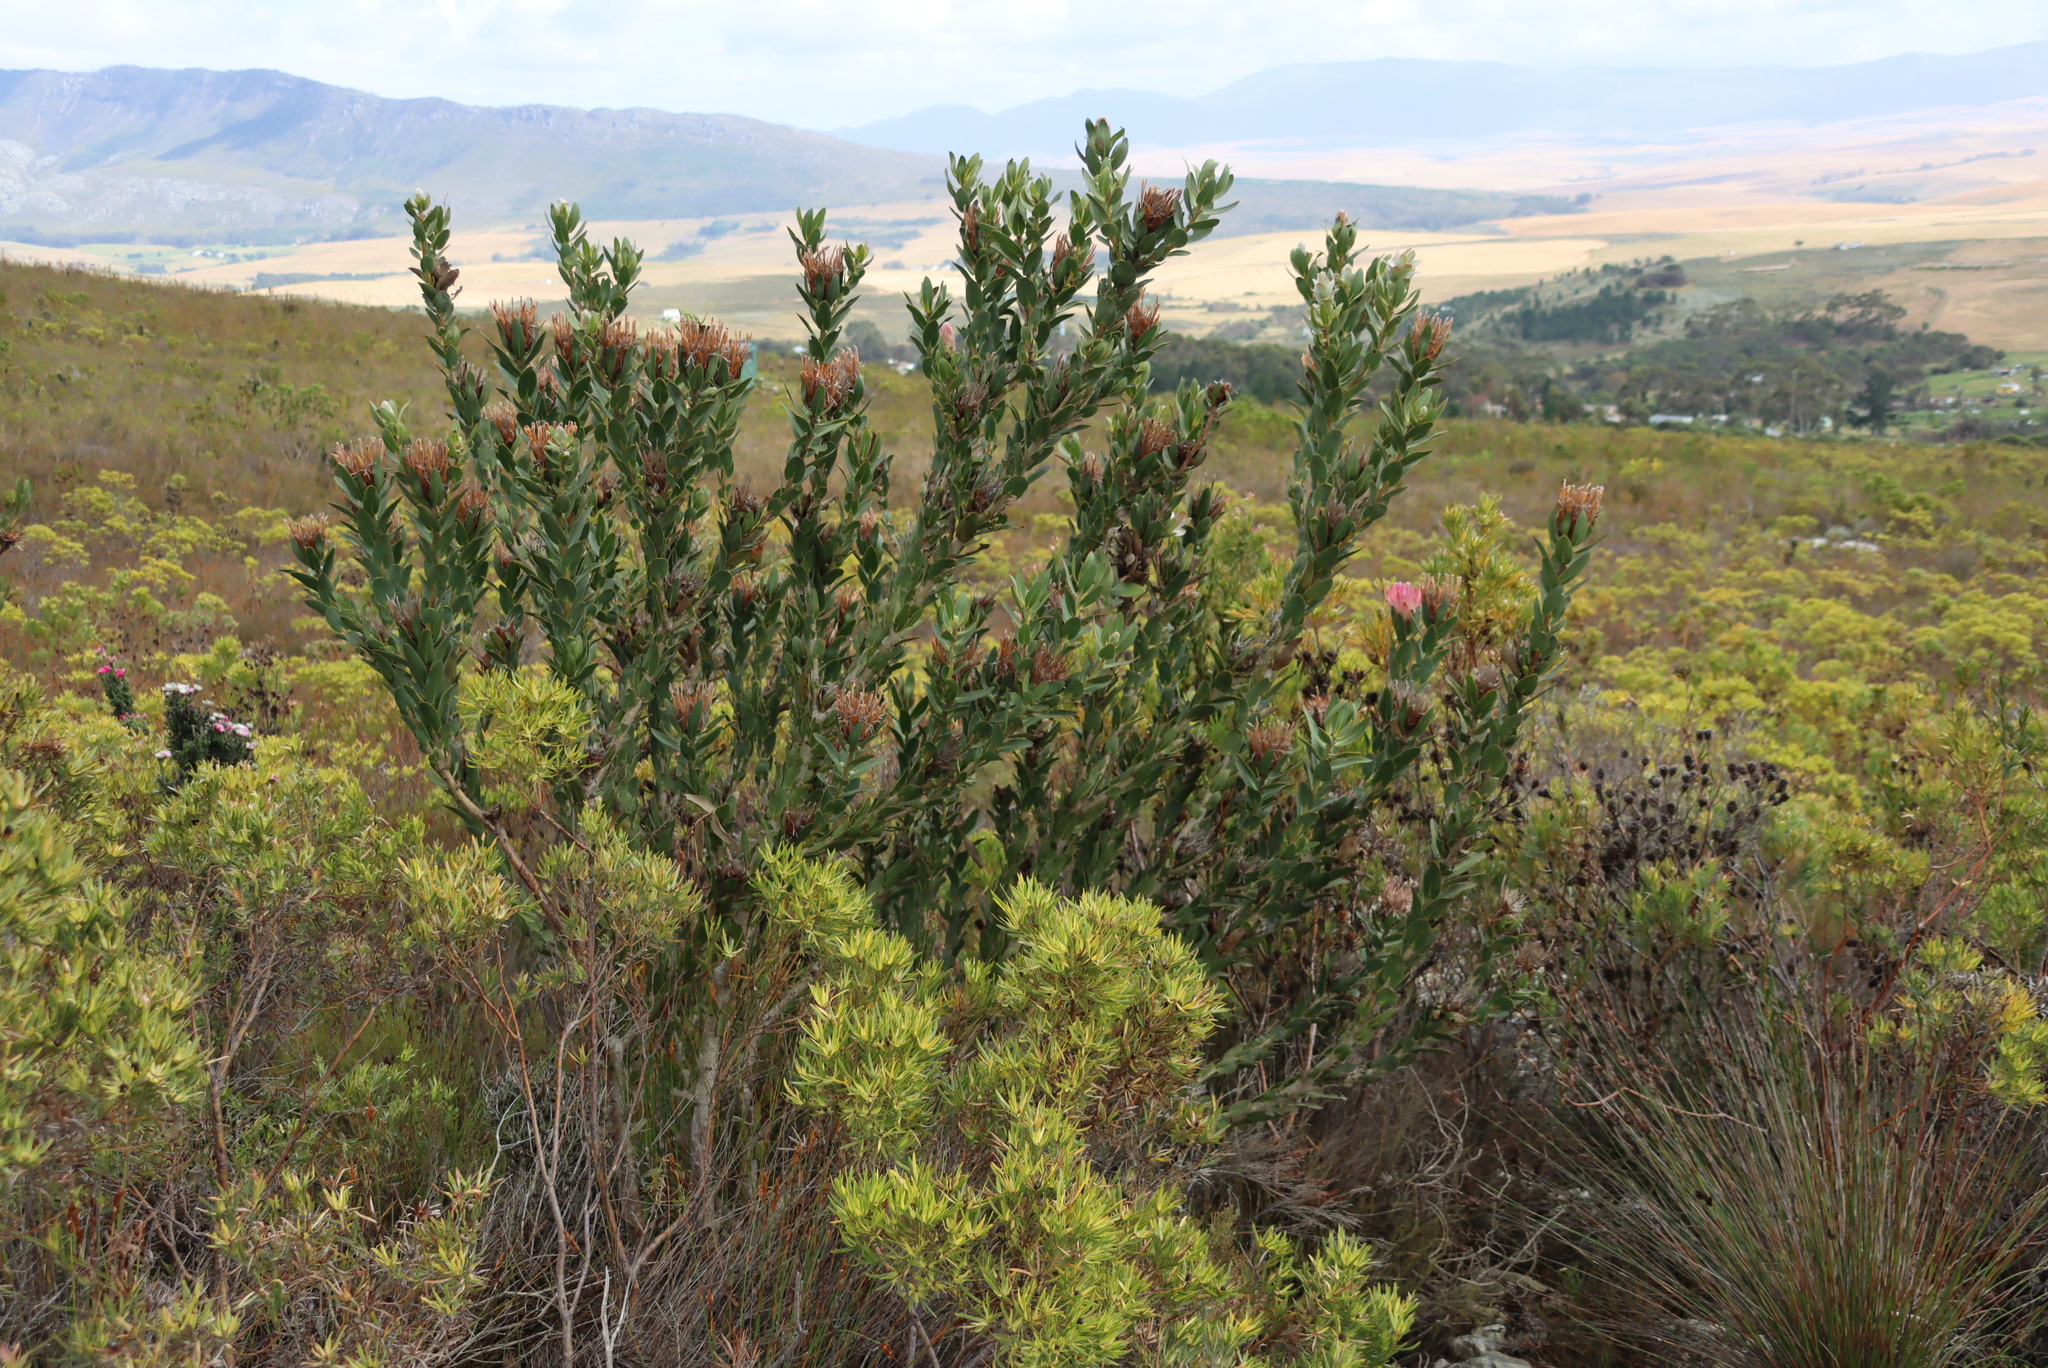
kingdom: Plantae
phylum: Tracheophyta
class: Magnoliopsida
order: Proteales
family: Proteaceae
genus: Protea
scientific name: Protea compacta
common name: Bot river protea
